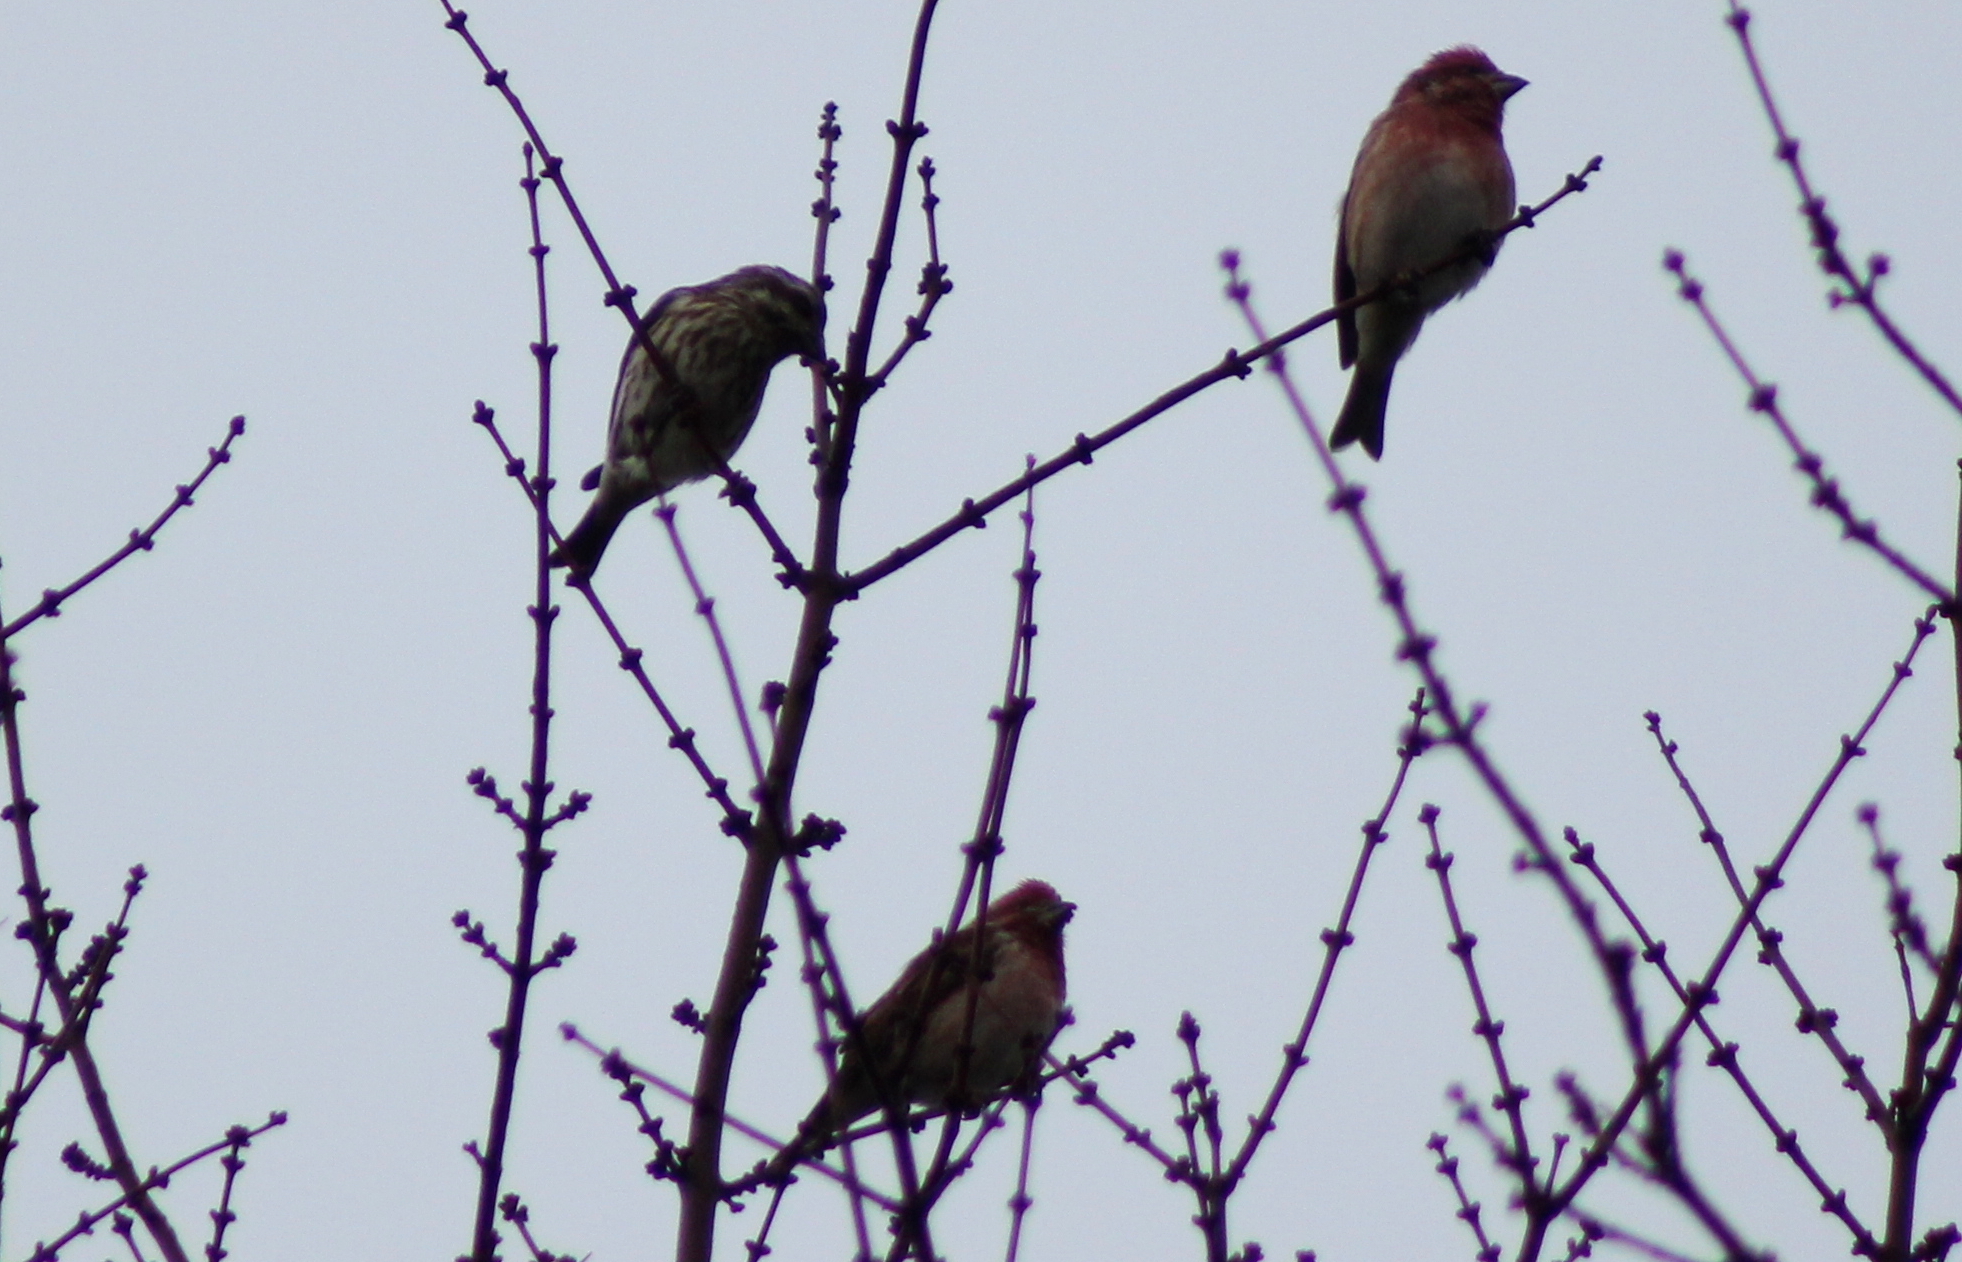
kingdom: Animalia
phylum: Chordata
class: Aves
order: Passeriformes
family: Fringillidae
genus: Haemorhous
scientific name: Haemorhous purpureus
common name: Purple finch
